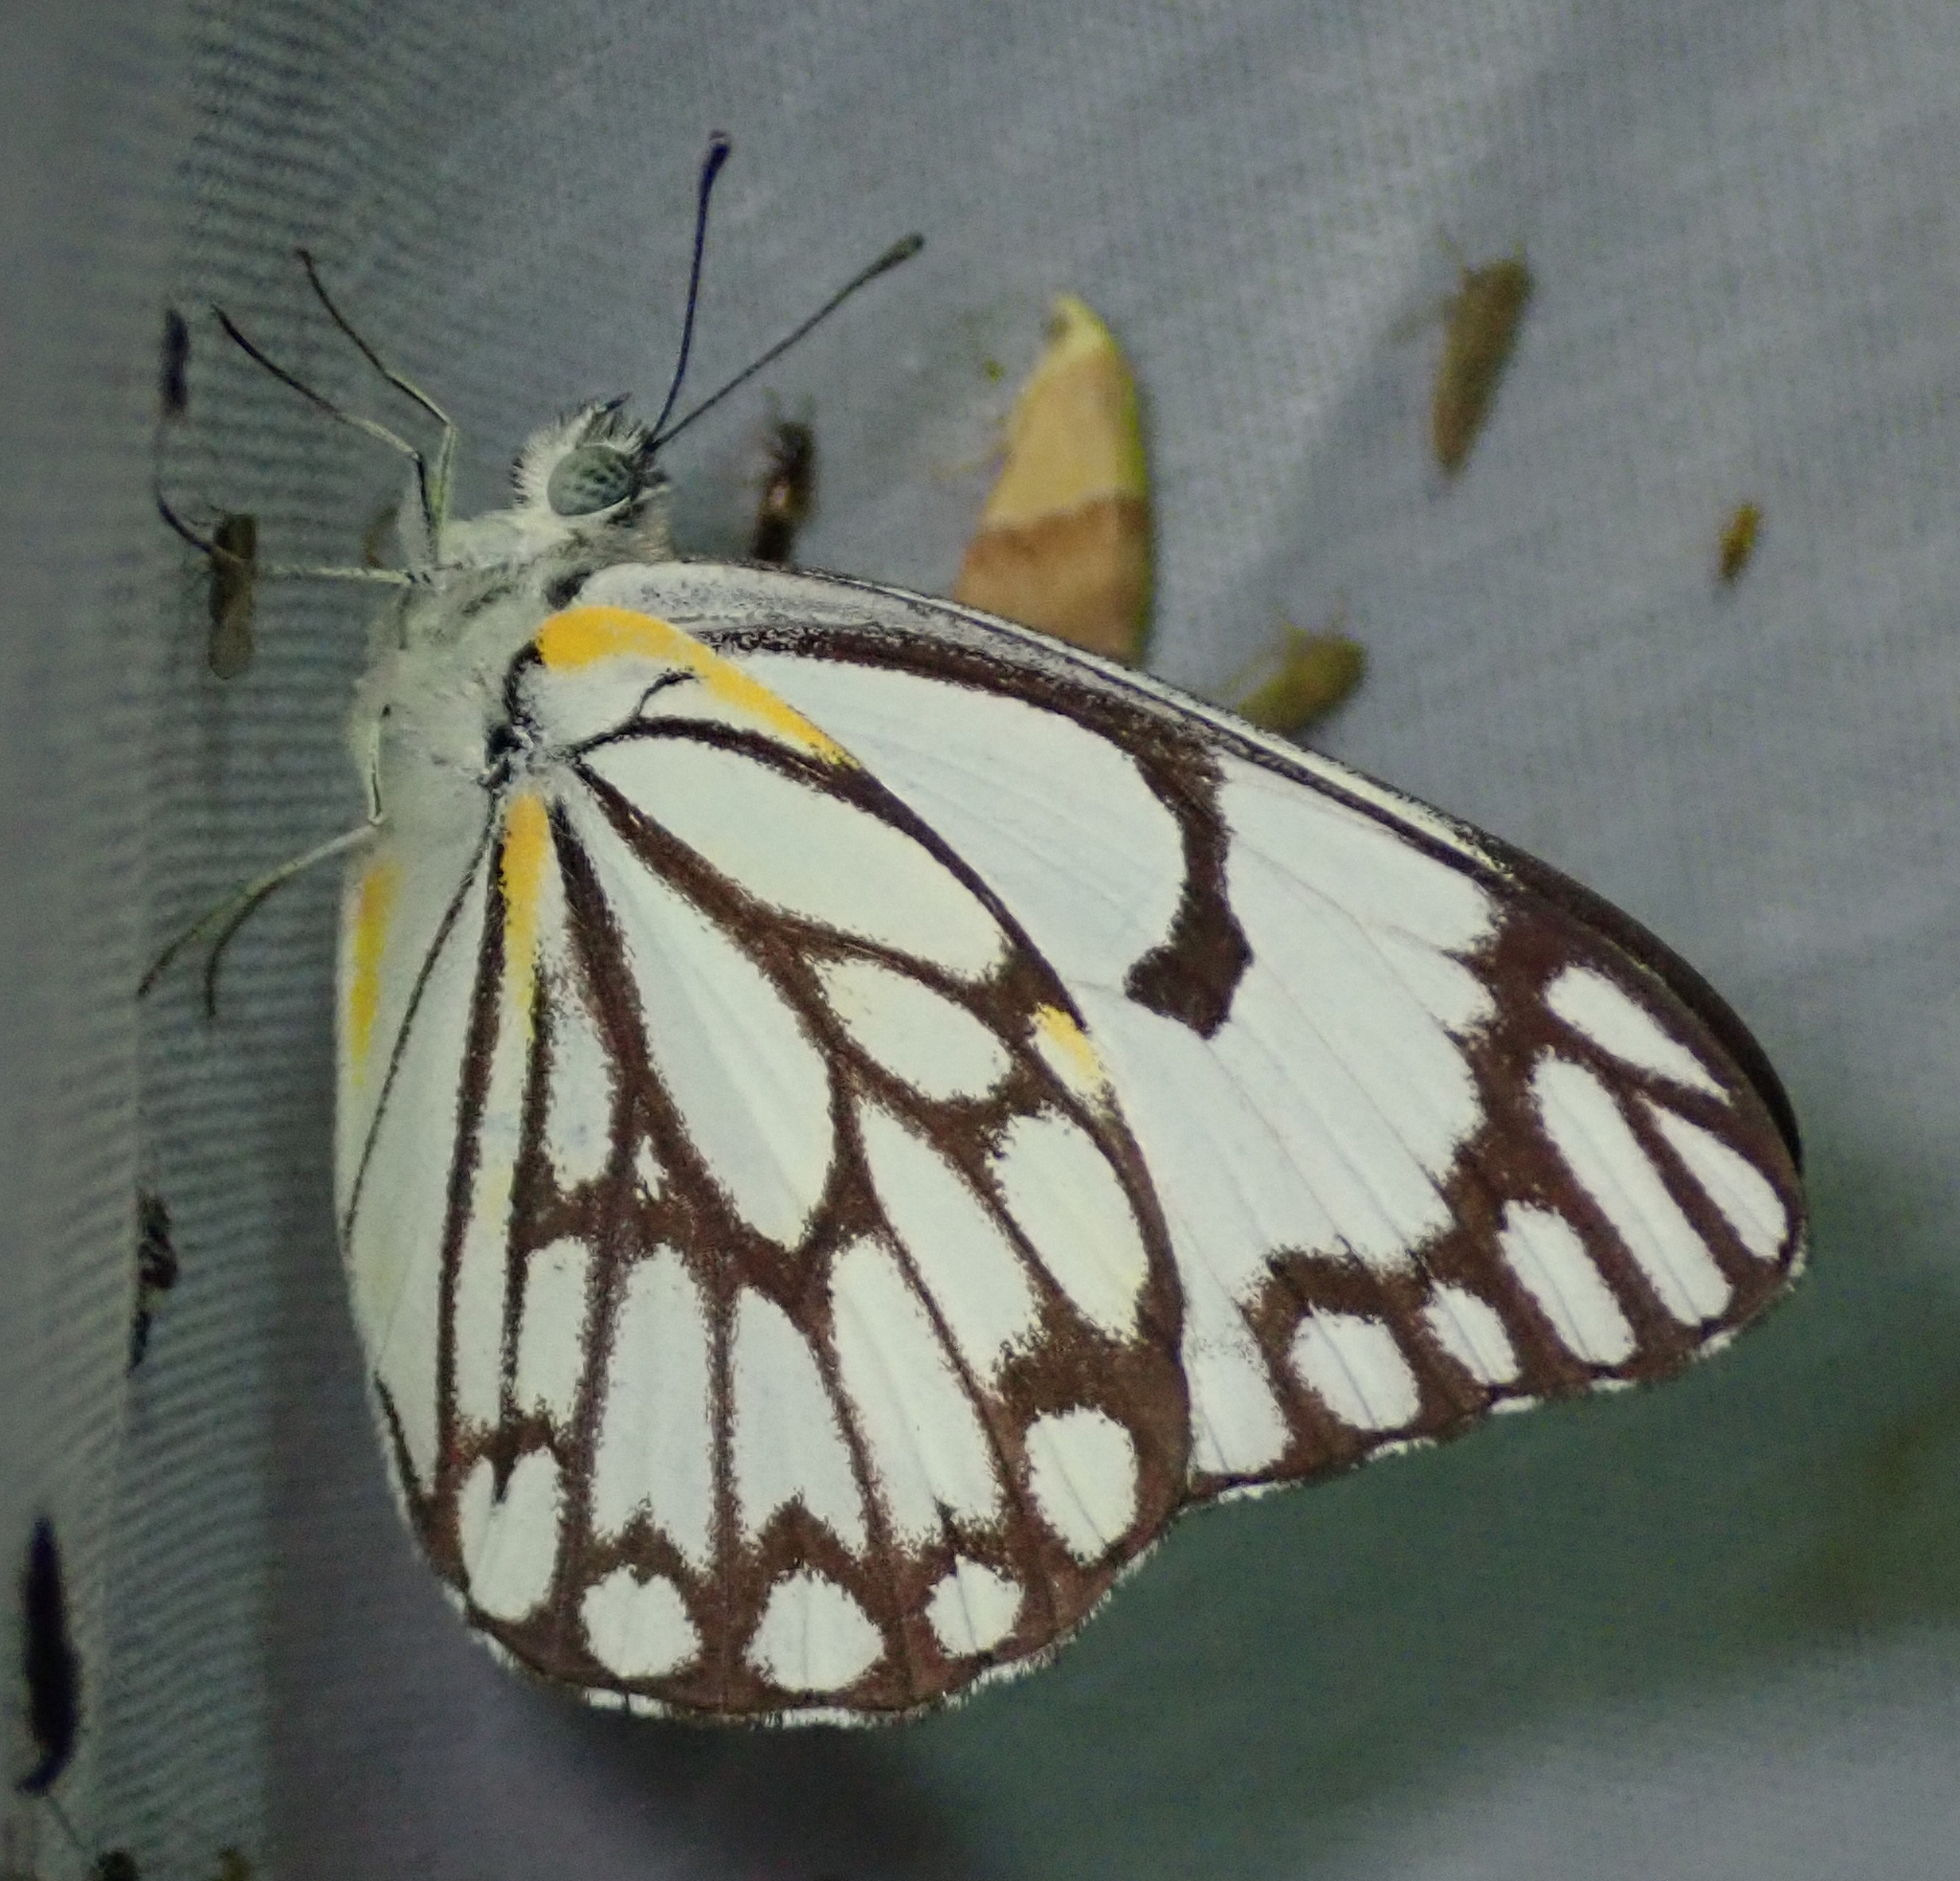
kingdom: Animalia
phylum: Arthropoda
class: Insecta
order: Lepidoptera
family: Pieridae
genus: Belenois
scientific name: Belenois aurota
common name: Brown-veined white
